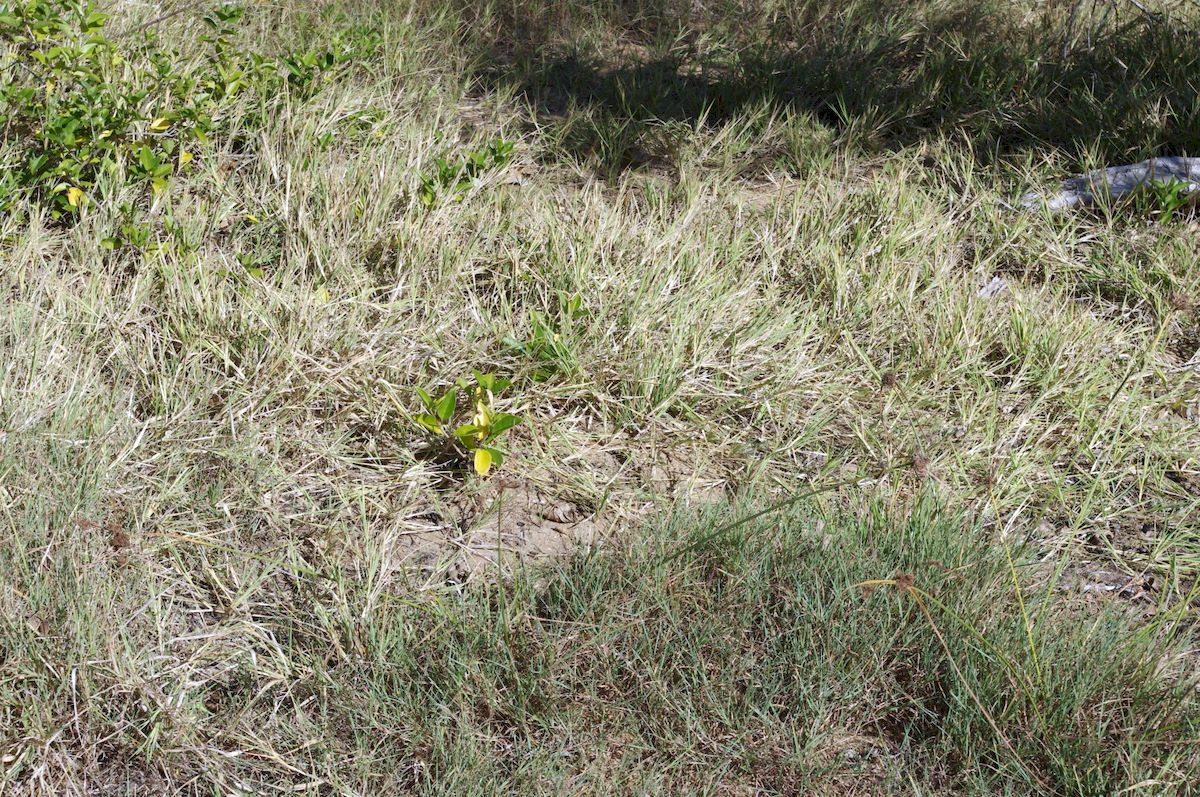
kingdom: Plantae
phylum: Tracheophyta
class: Liliopsida
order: Poales
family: Poaceae
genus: Hemarthria
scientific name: Hemarthria uncinata
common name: Matgrass
